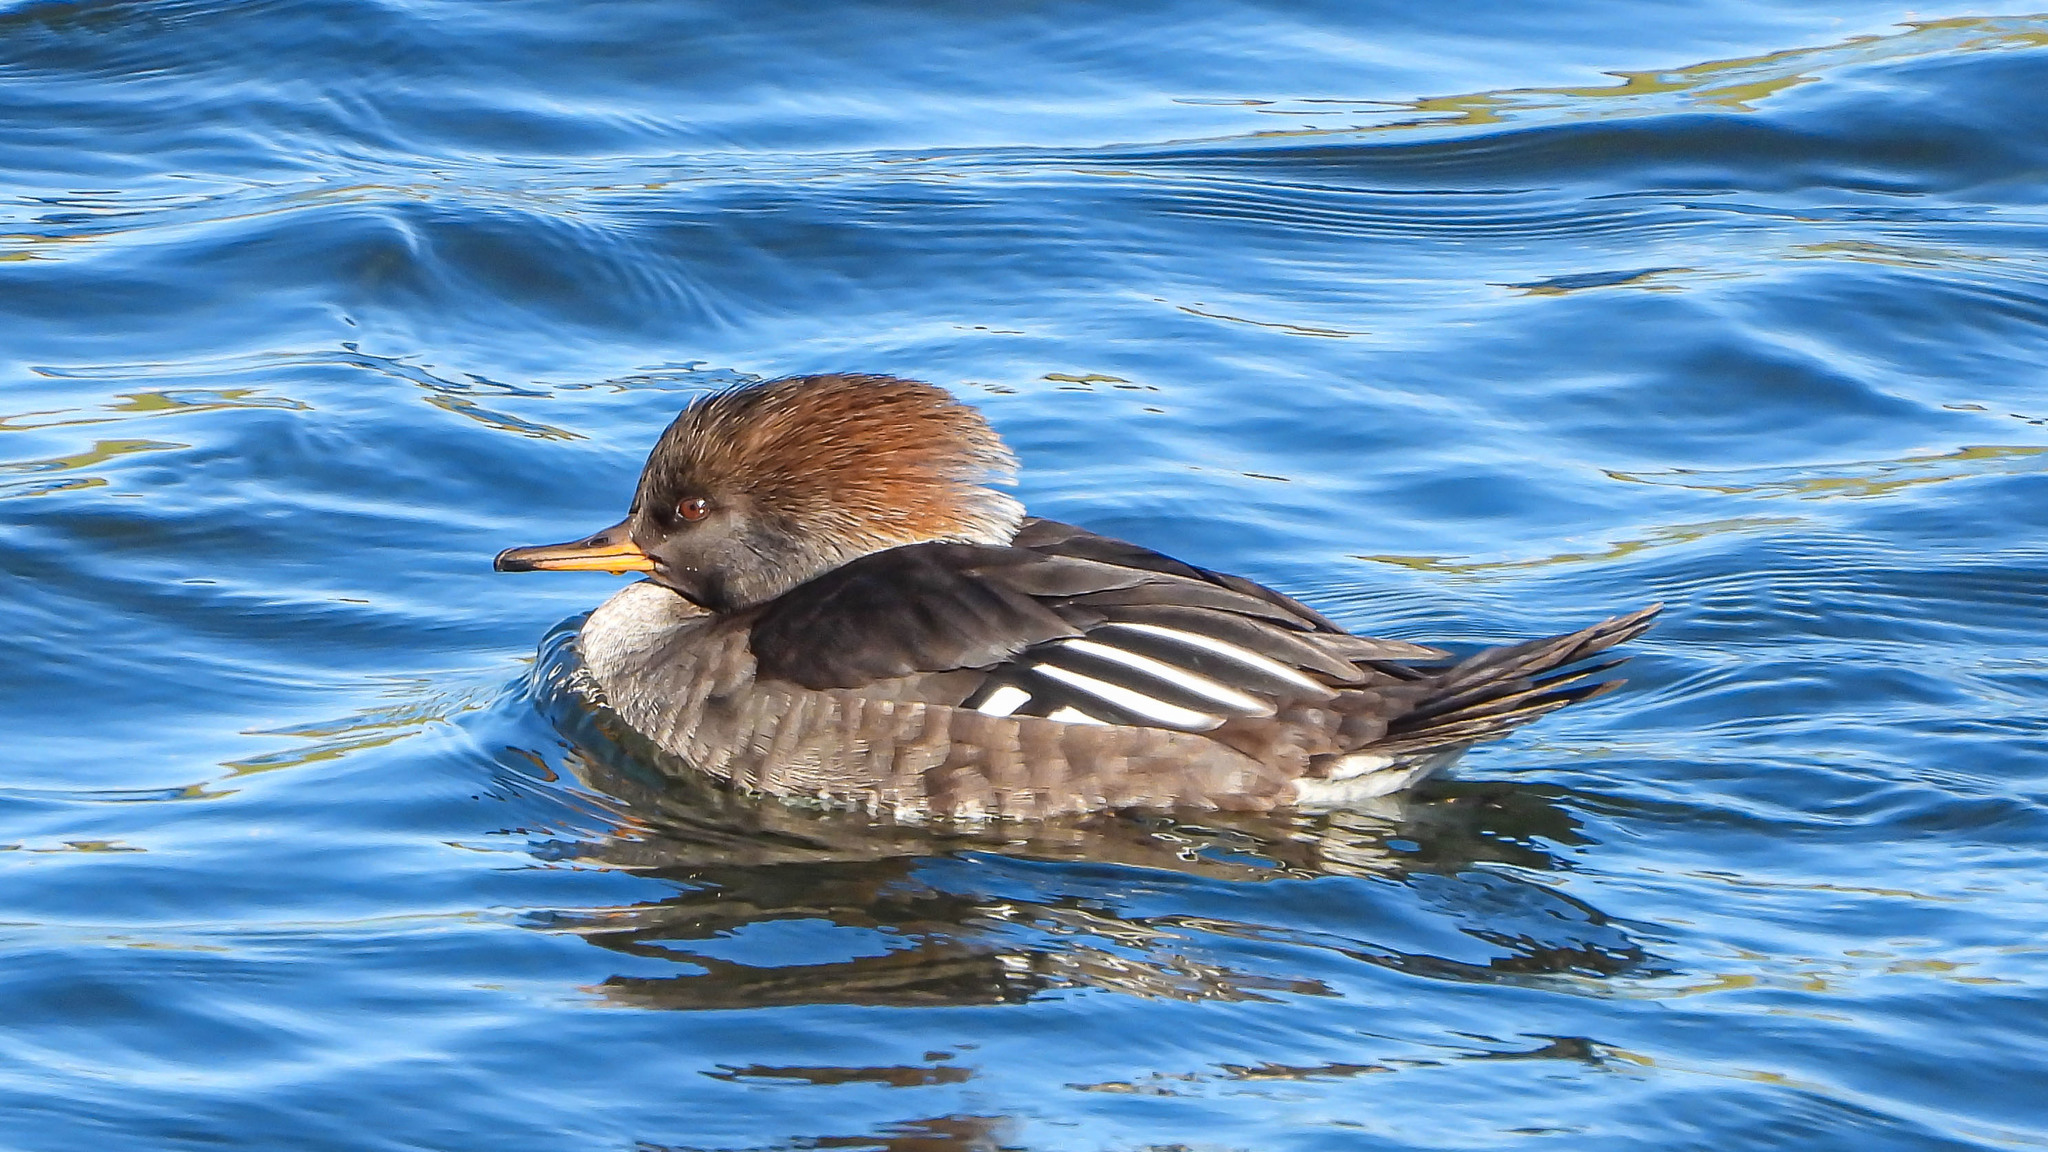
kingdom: Animalia
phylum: Chordata
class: Aves
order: Anseriformes
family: Anatidae
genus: Lophodytes
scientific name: Lophodytes cucullatus
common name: Hooded merganser
